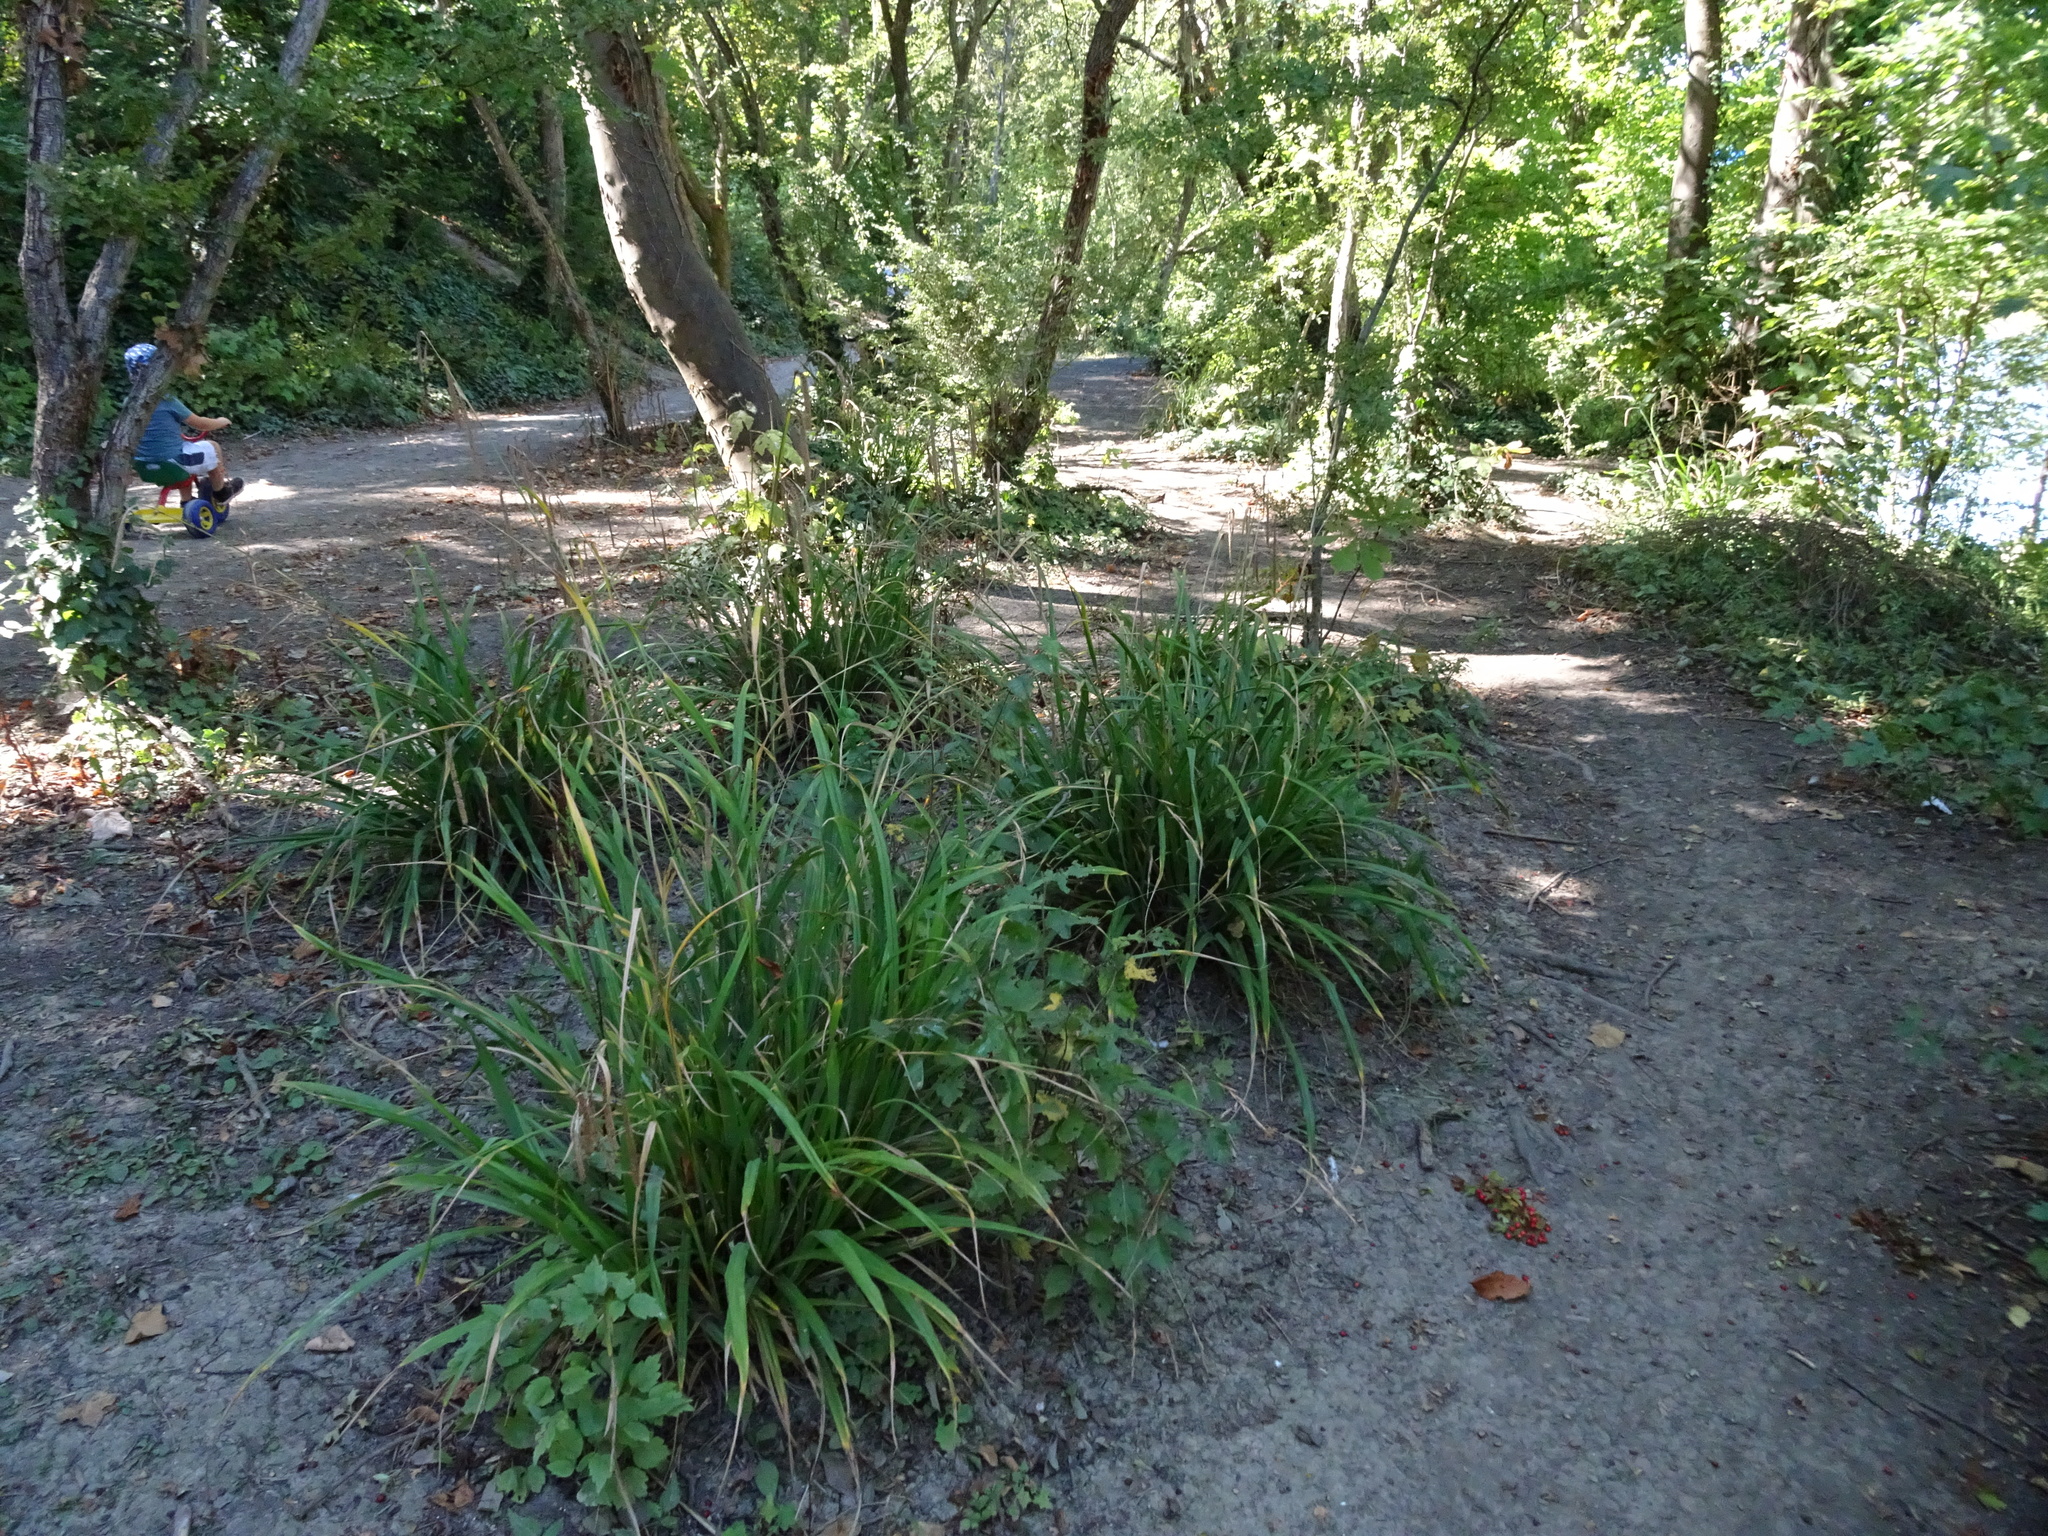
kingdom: Plantae
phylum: Tracheophyta
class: Liliopsida
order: Poales
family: Cyperaceae
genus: Carex
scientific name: Carex pendula
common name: Pendulous sedge
